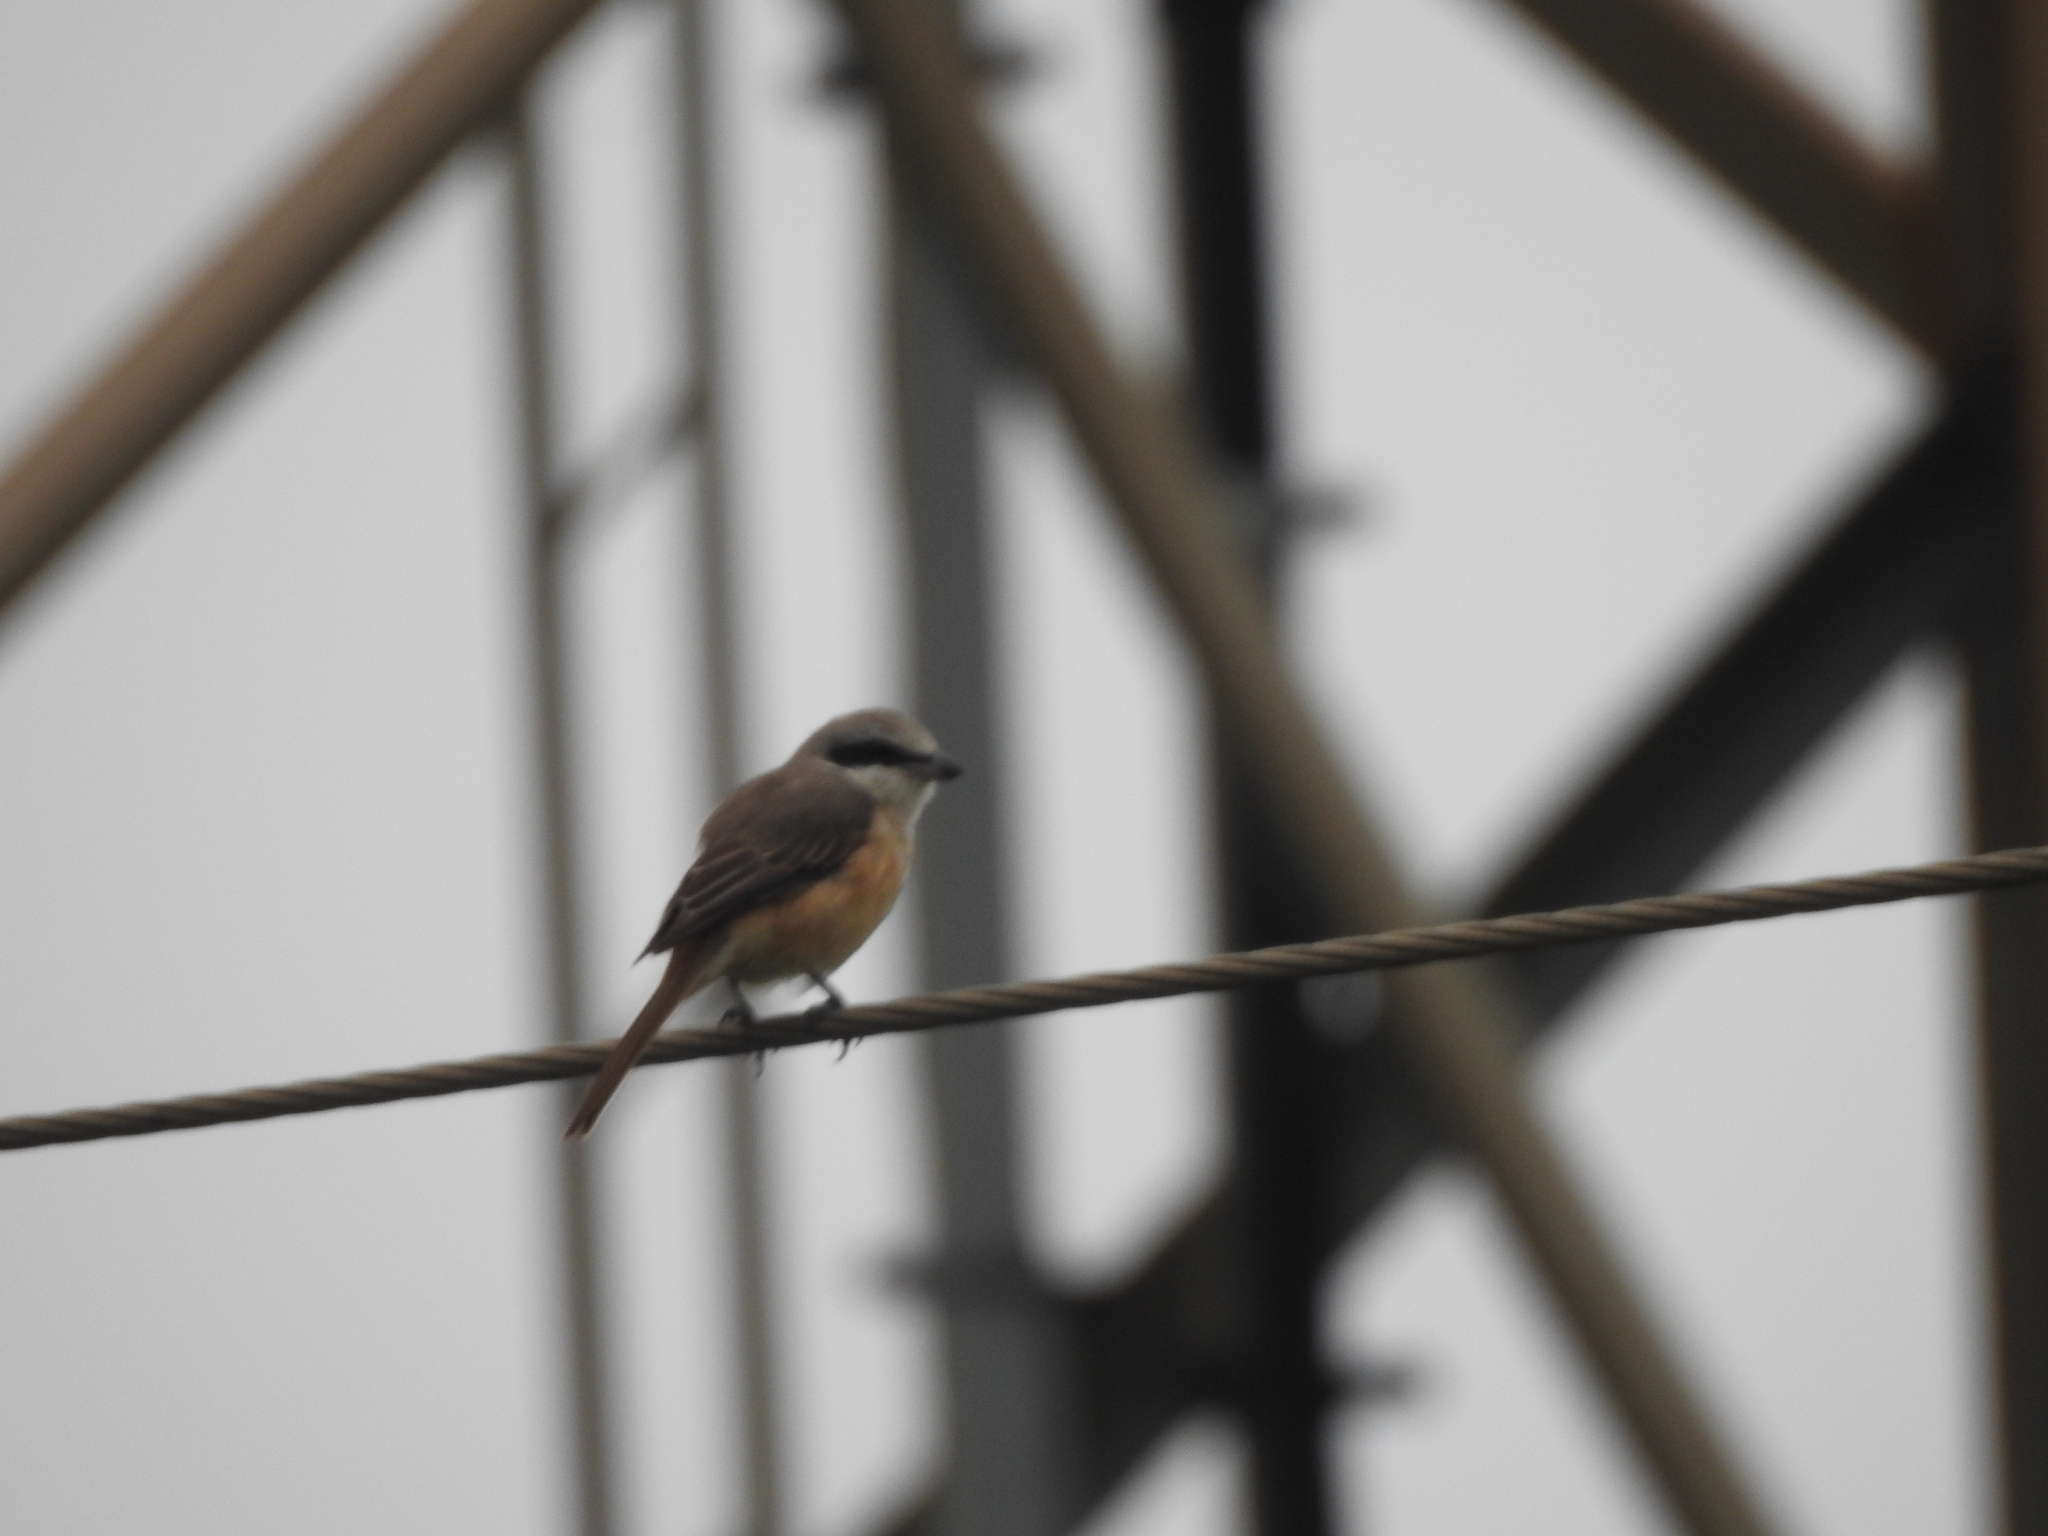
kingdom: Animalia
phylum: Chordata
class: Aves
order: Passeriformes
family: Laniidae
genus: Lanius
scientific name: Lanius cristatus
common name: Brown shrike
